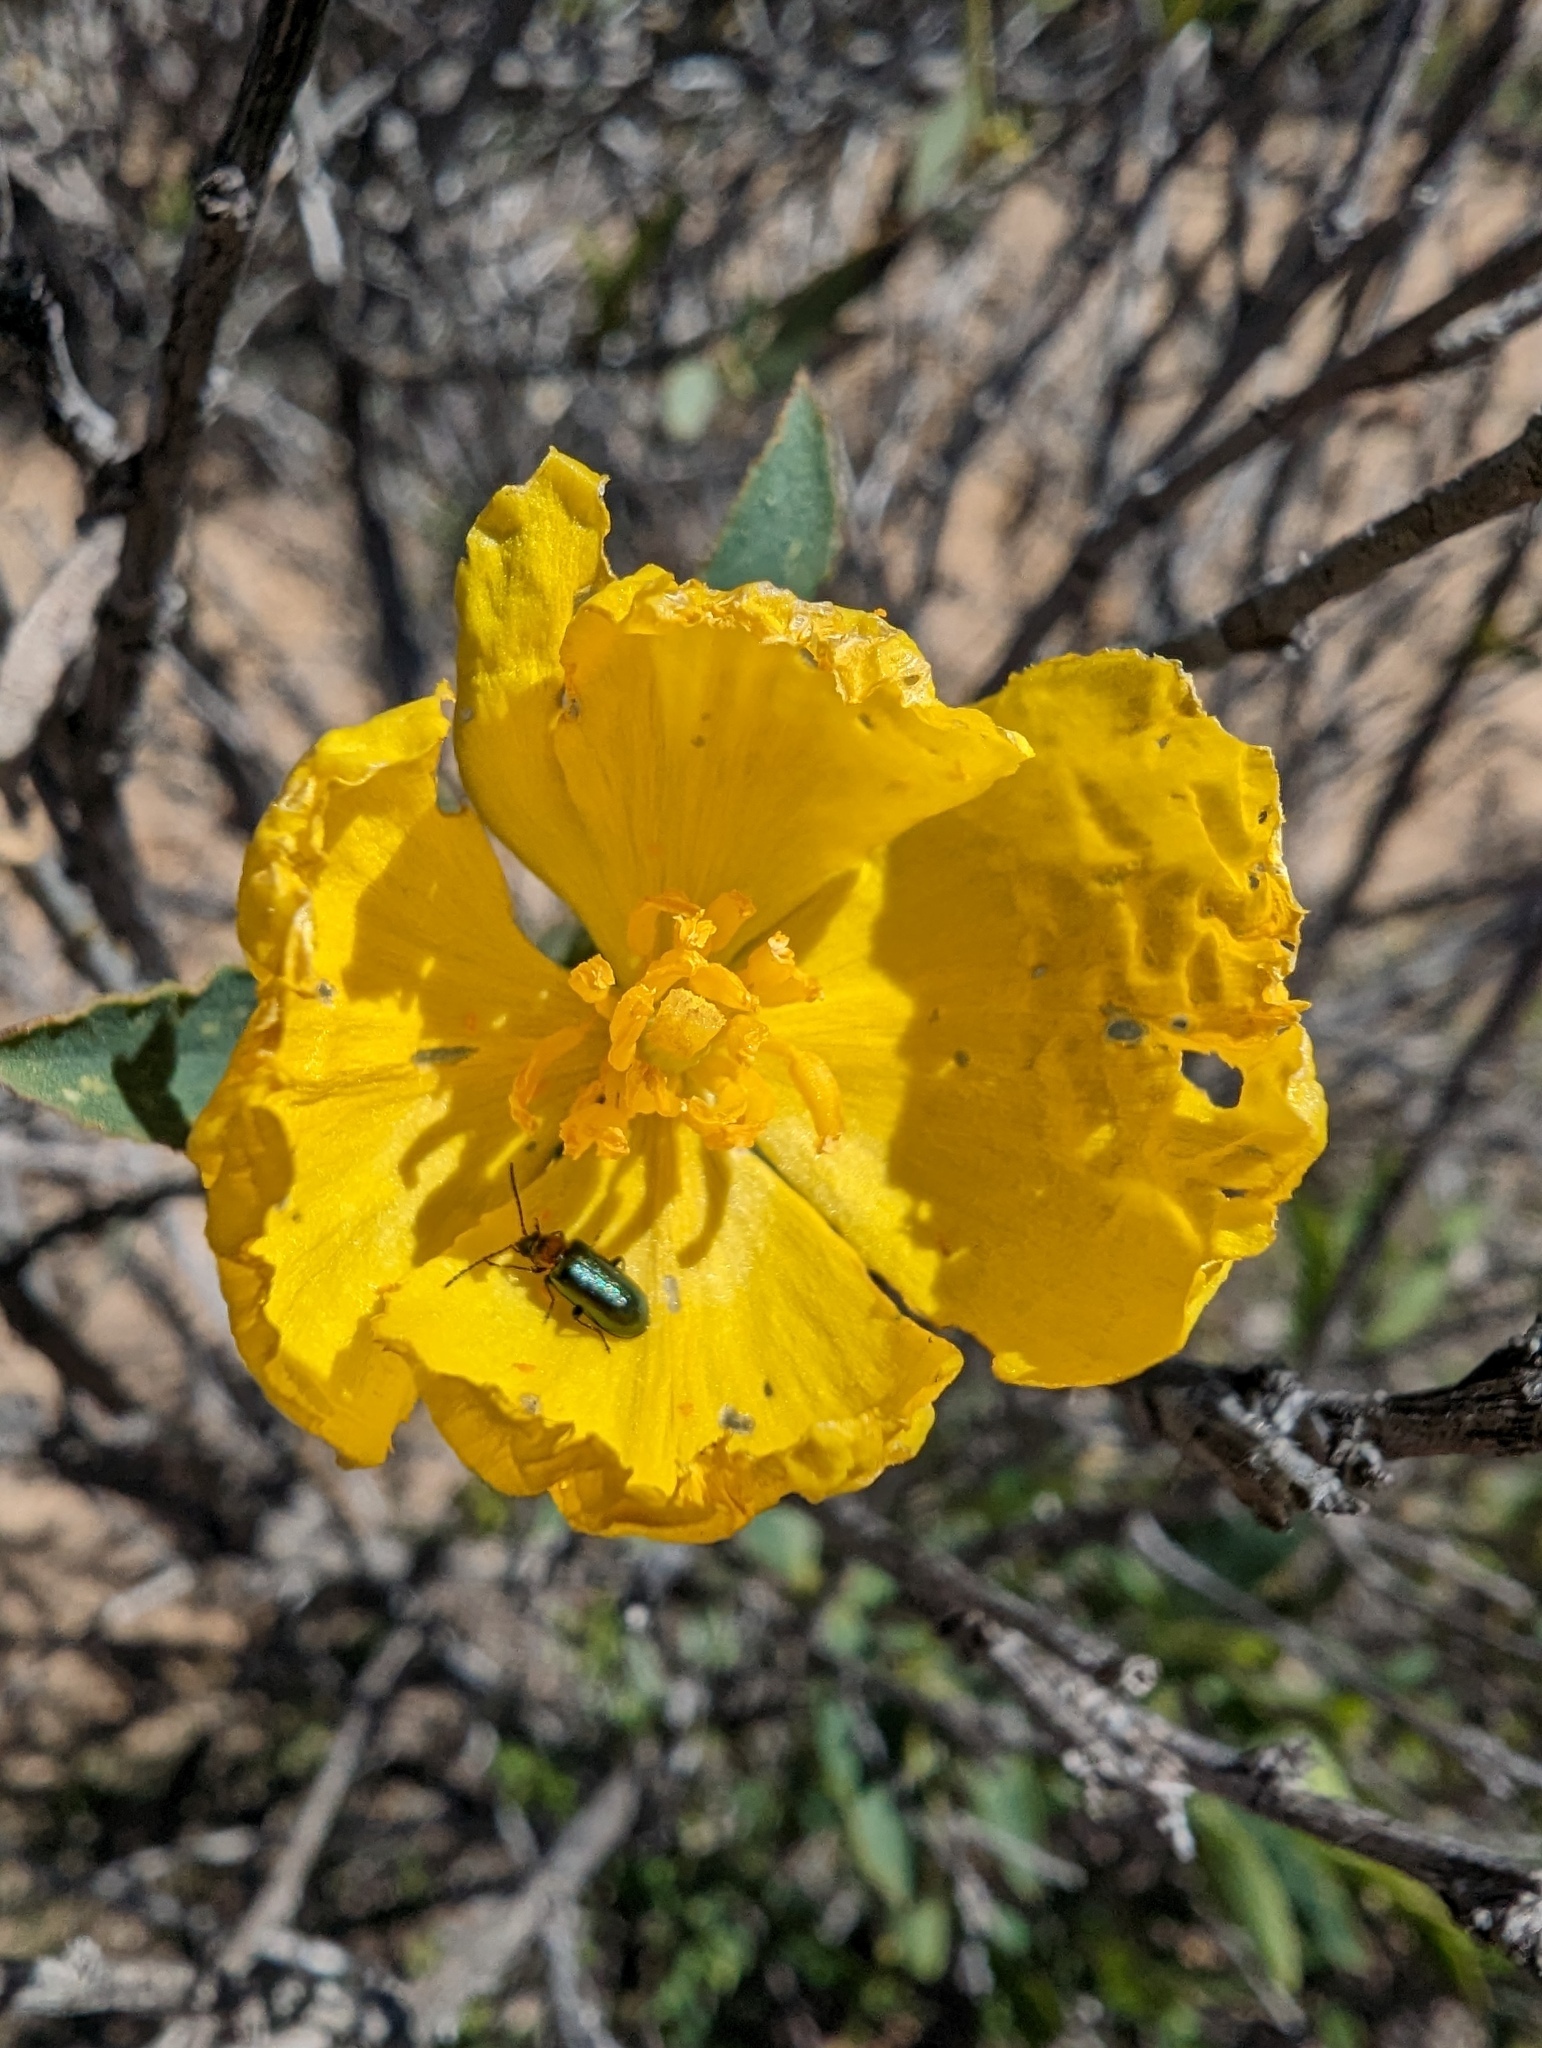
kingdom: Plantae
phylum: Tracheophyta
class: Magnoliopsida
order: Ranunculales
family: Papaveraceae
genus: Dendromecon
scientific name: Dendromecon rigida
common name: Tree poppy
